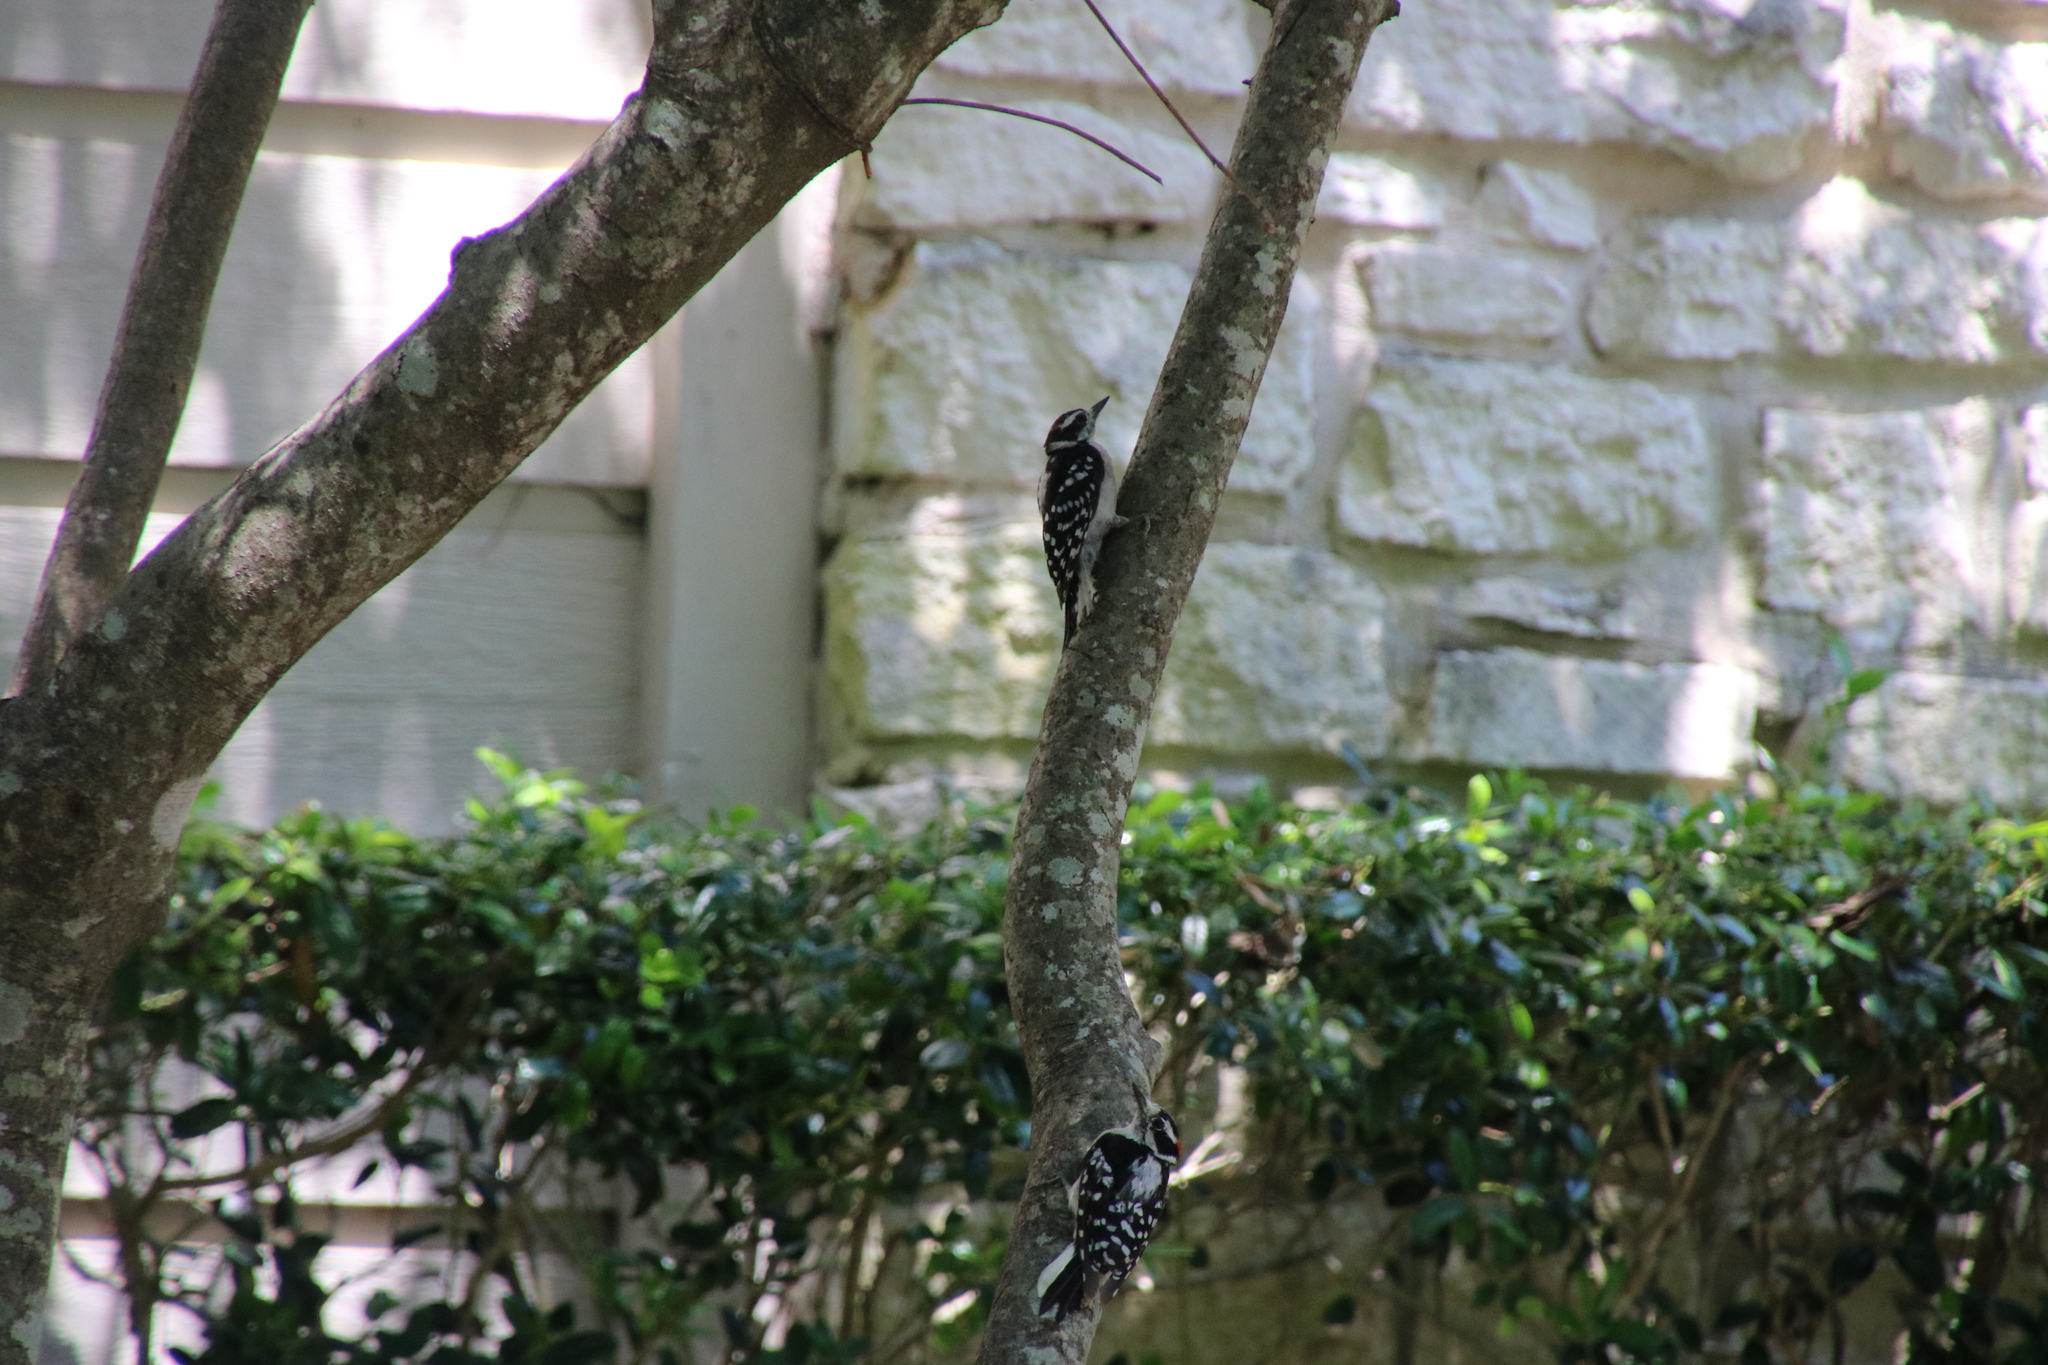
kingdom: Animalia
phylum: Chordata
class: Aves
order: Piciformes
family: Picidae
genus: Dryobates
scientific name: Dryobates pubescens
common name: Downy woodpecker
